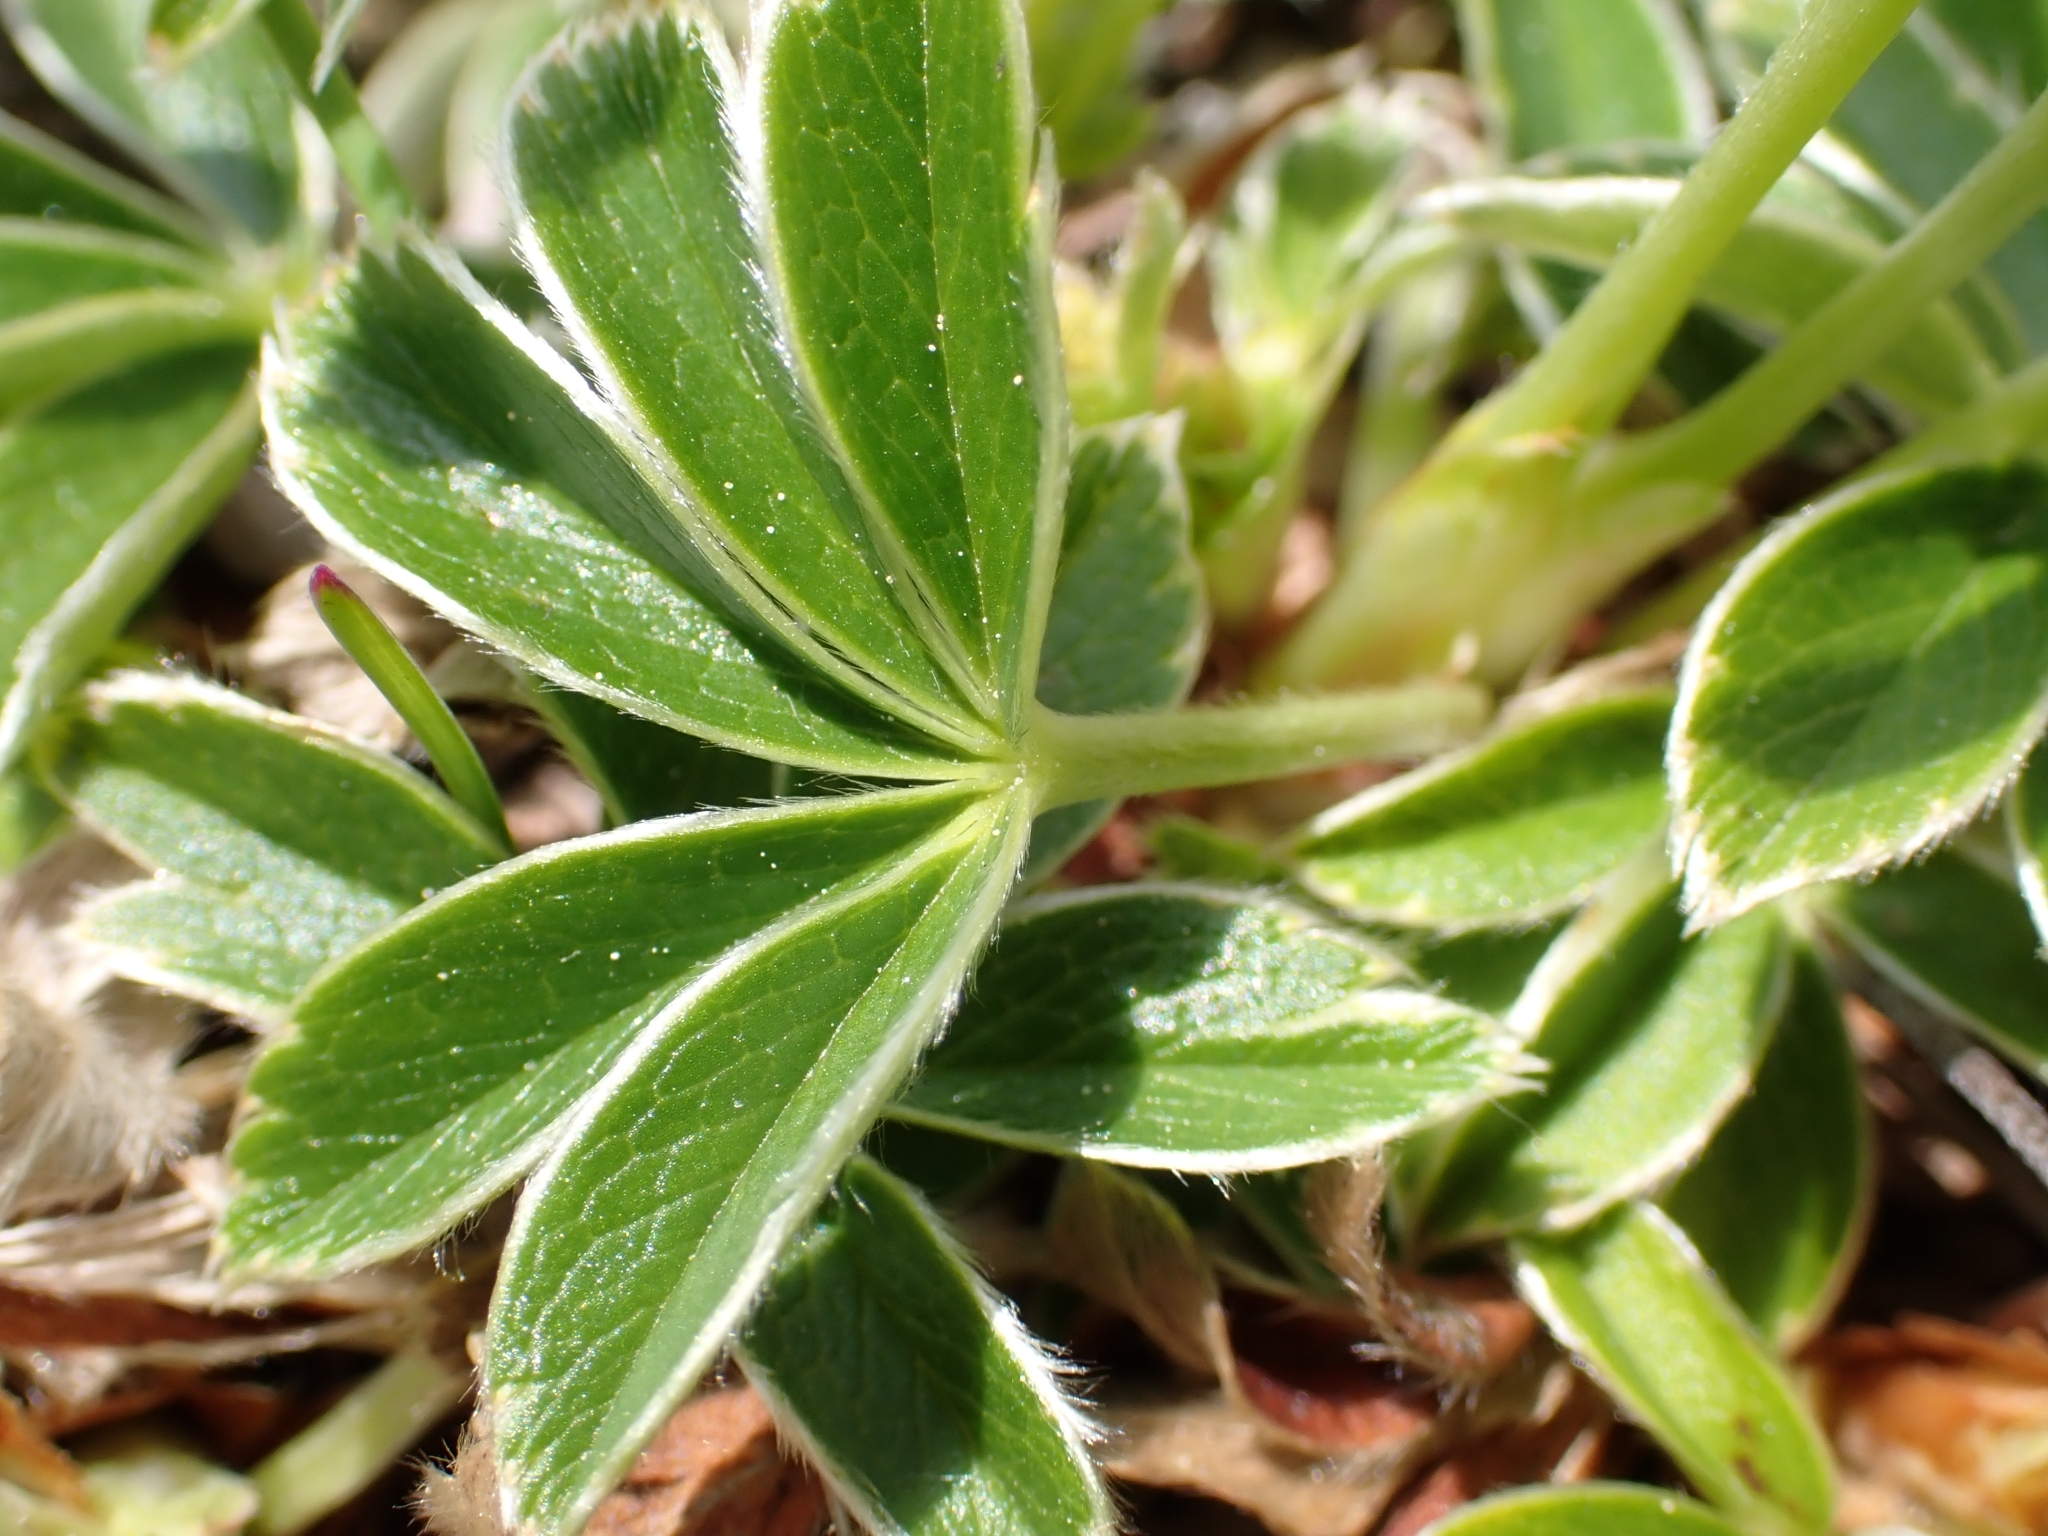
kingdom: Plantae
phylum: Tracheophyta
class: Magnoliopsida
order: Rosales
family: Rosaceae
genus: Alchemilla
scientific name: Alchemilla alpina
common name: Alpine lady's-mantle
